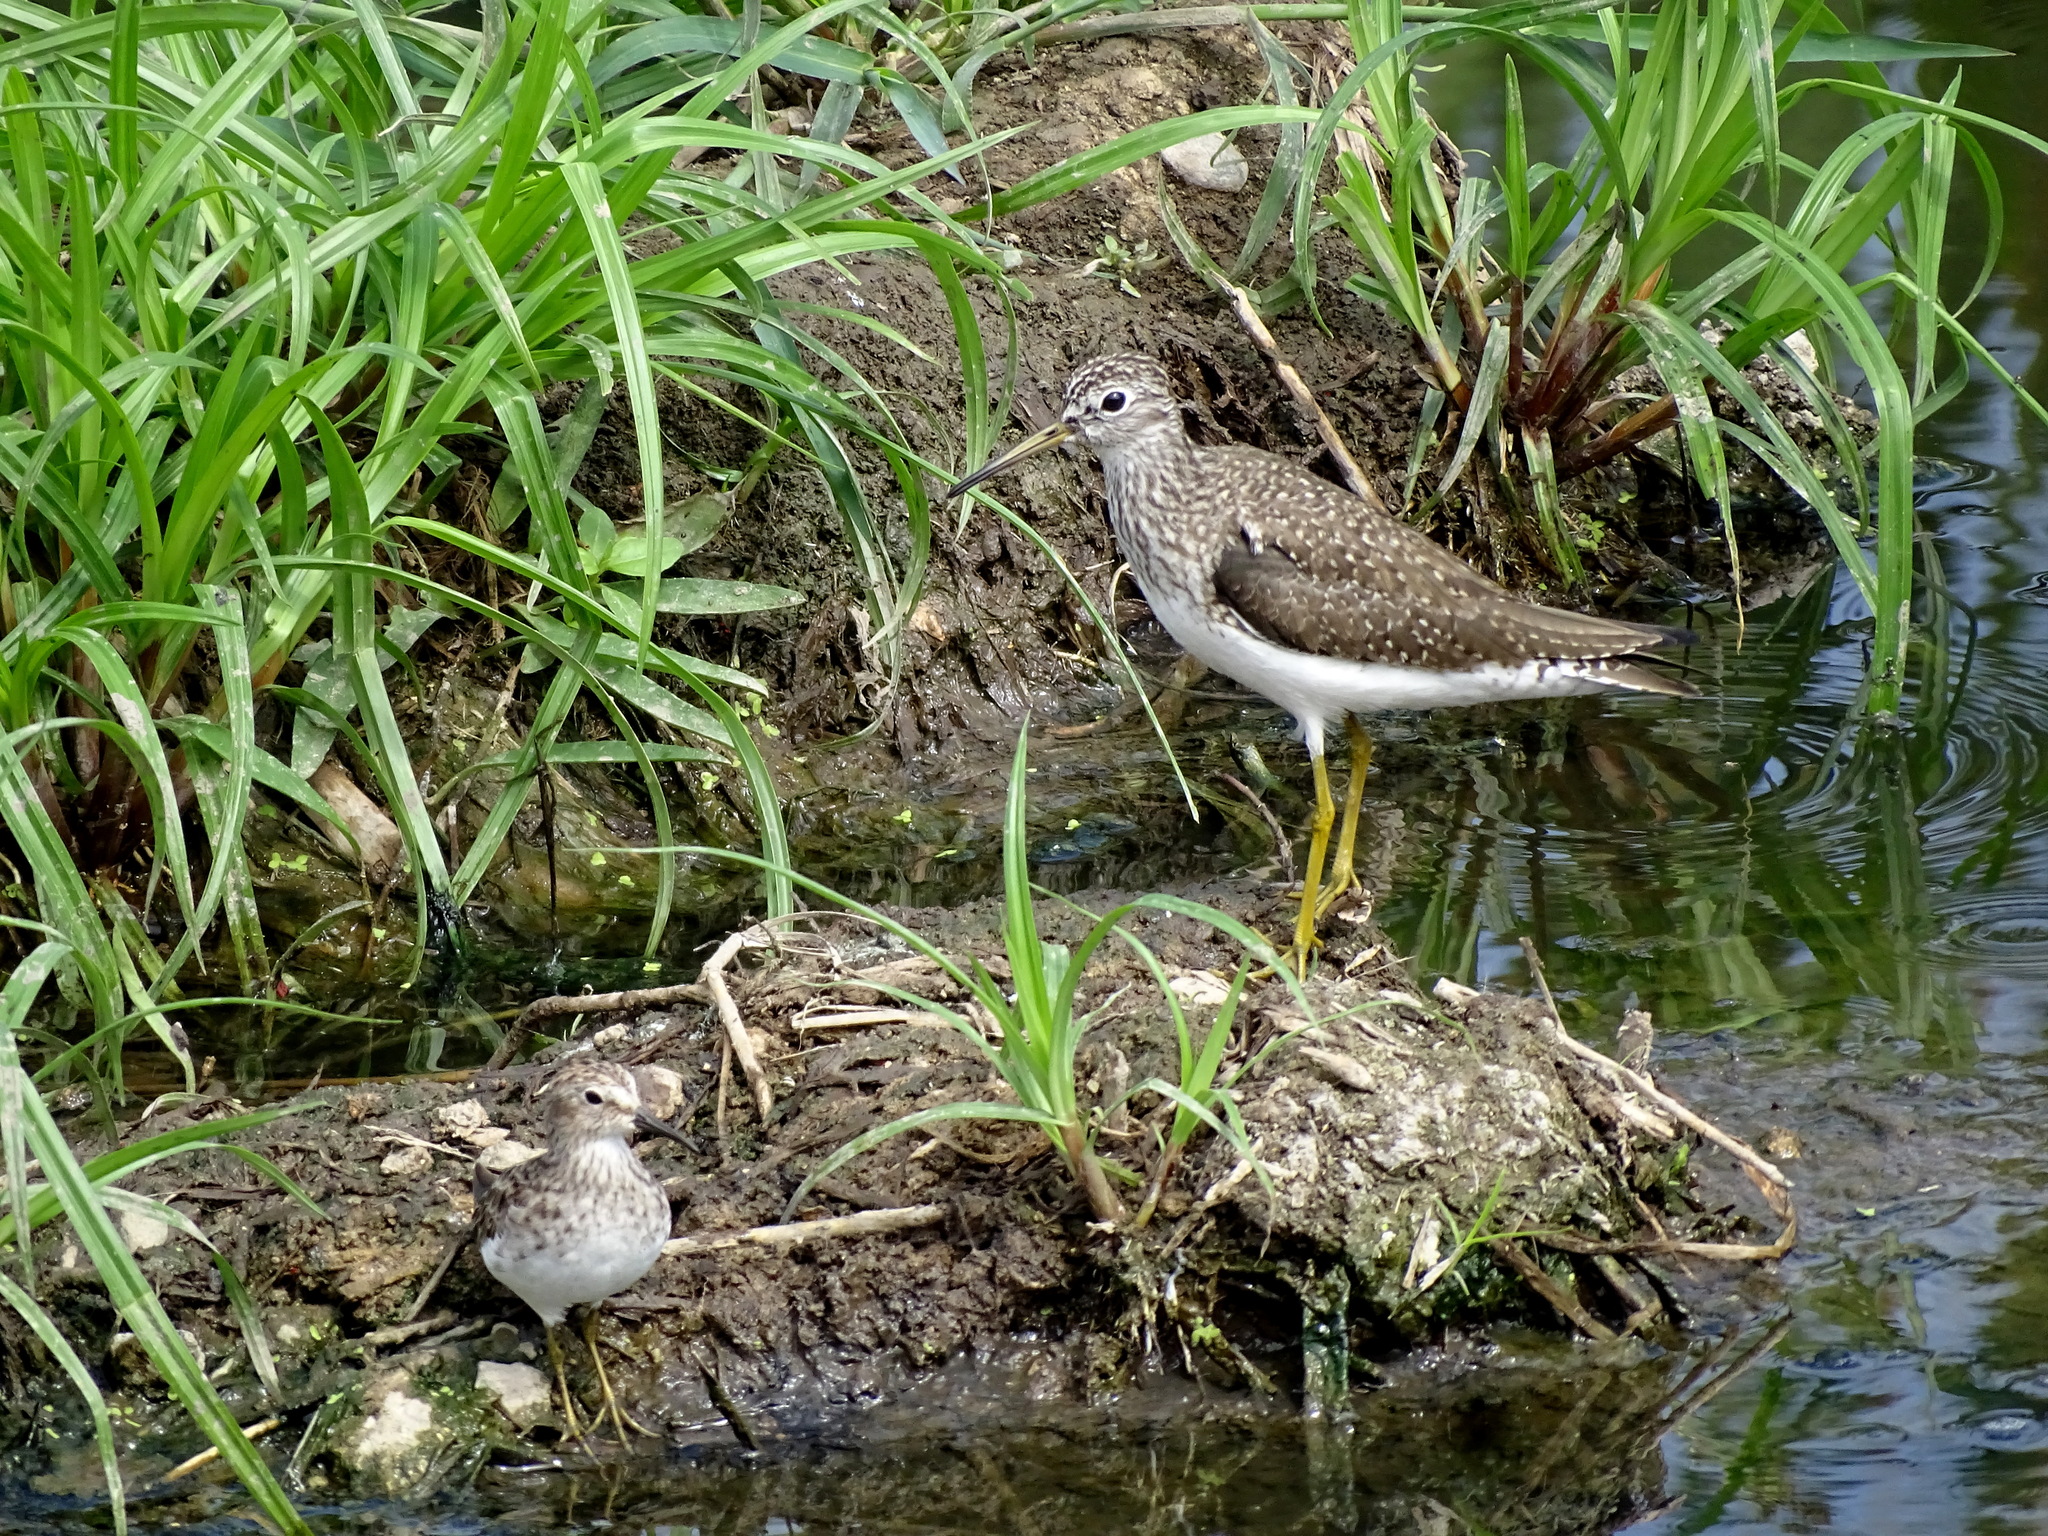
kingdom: Animalia
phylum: Chordata
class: Aves
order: Charadriiformes
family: Scolopacidae
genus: Tringa
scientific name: Tringa solitaria
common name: Solitary sandpiper
